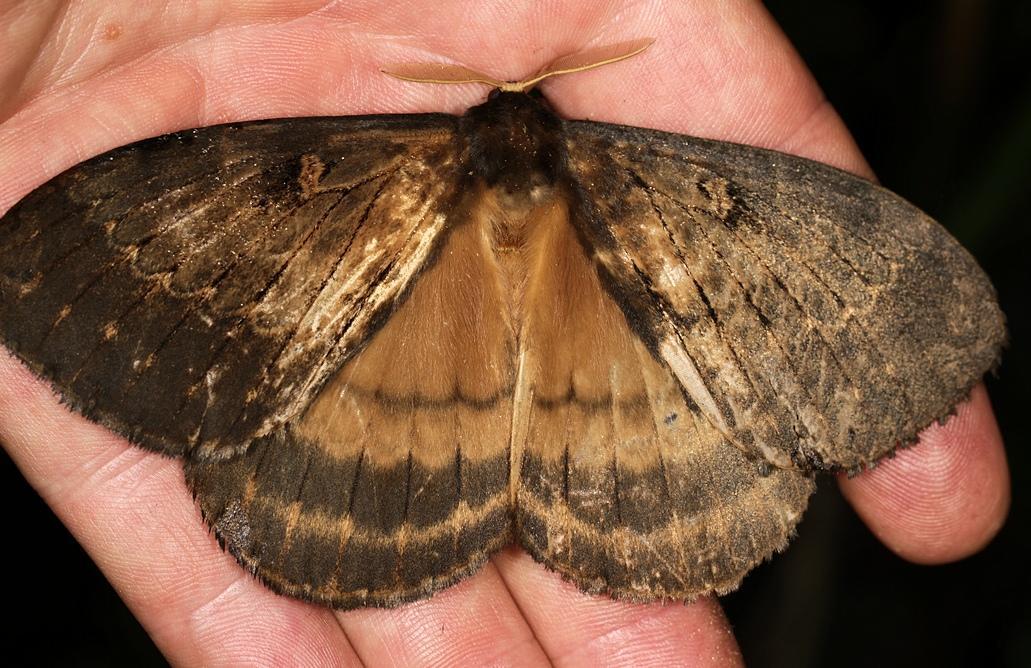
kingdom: Animalia
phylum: Arthropoda
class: Insecta
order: Lepidoptera
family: Eupterotidae
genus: Jana
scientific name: Jana tantalus
